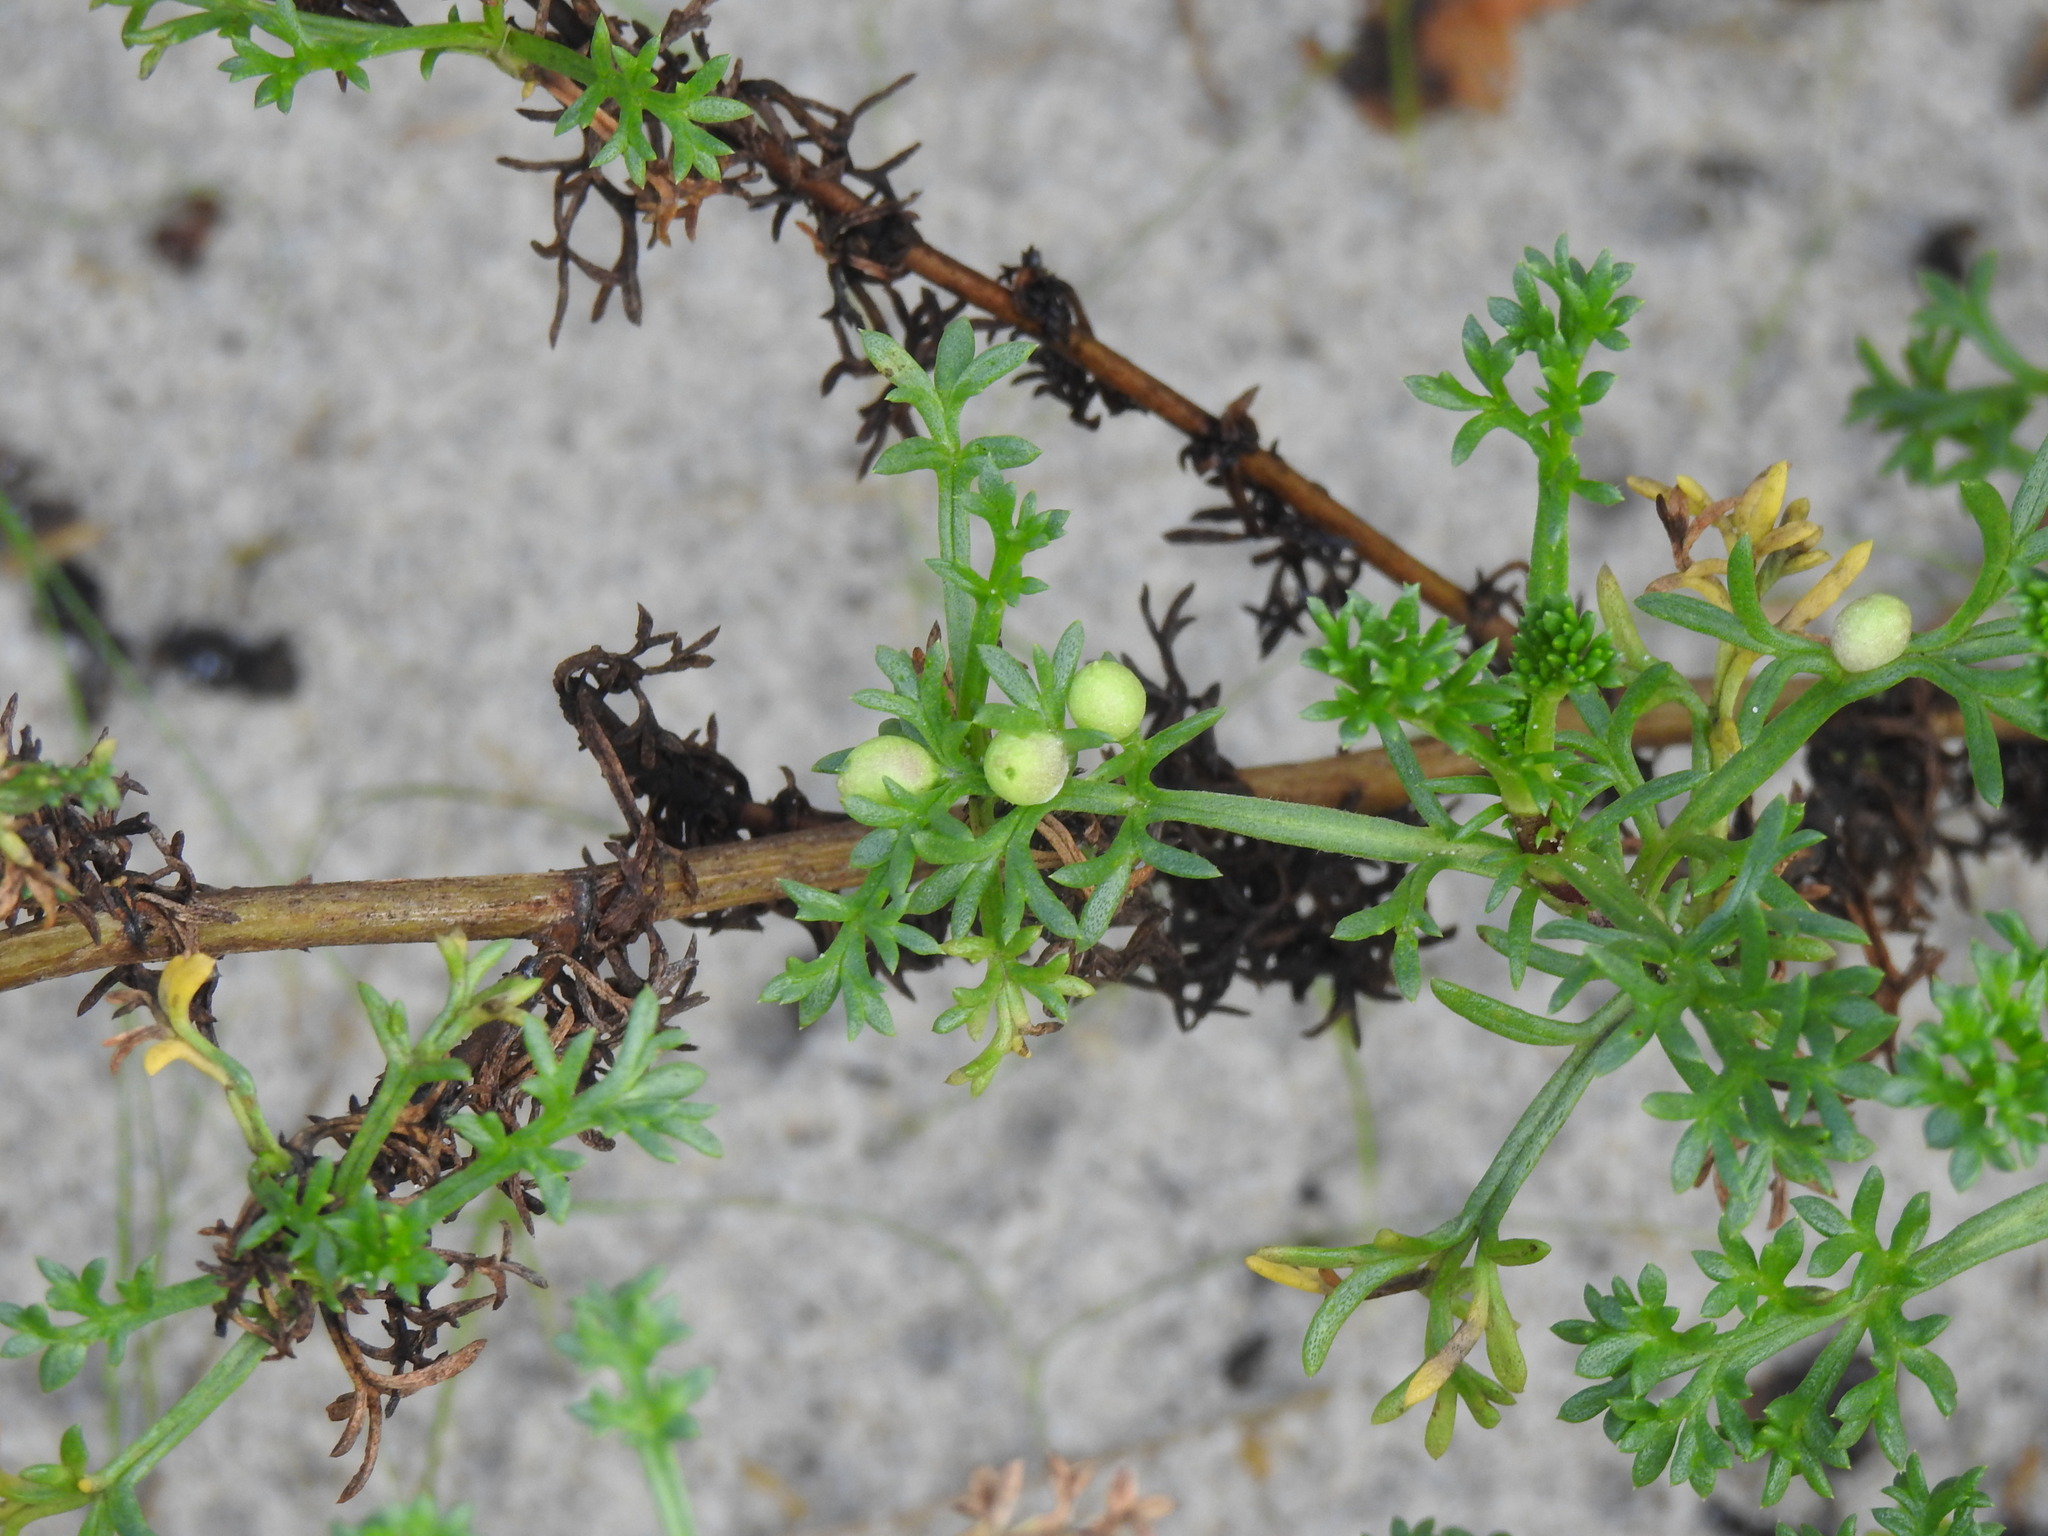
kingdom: Animalia
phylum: Arthropoda
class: Insecta
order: Diptera
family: Cecidomyiidae
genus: Rhopalomyia
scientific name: Rhopalomyia baccarum
